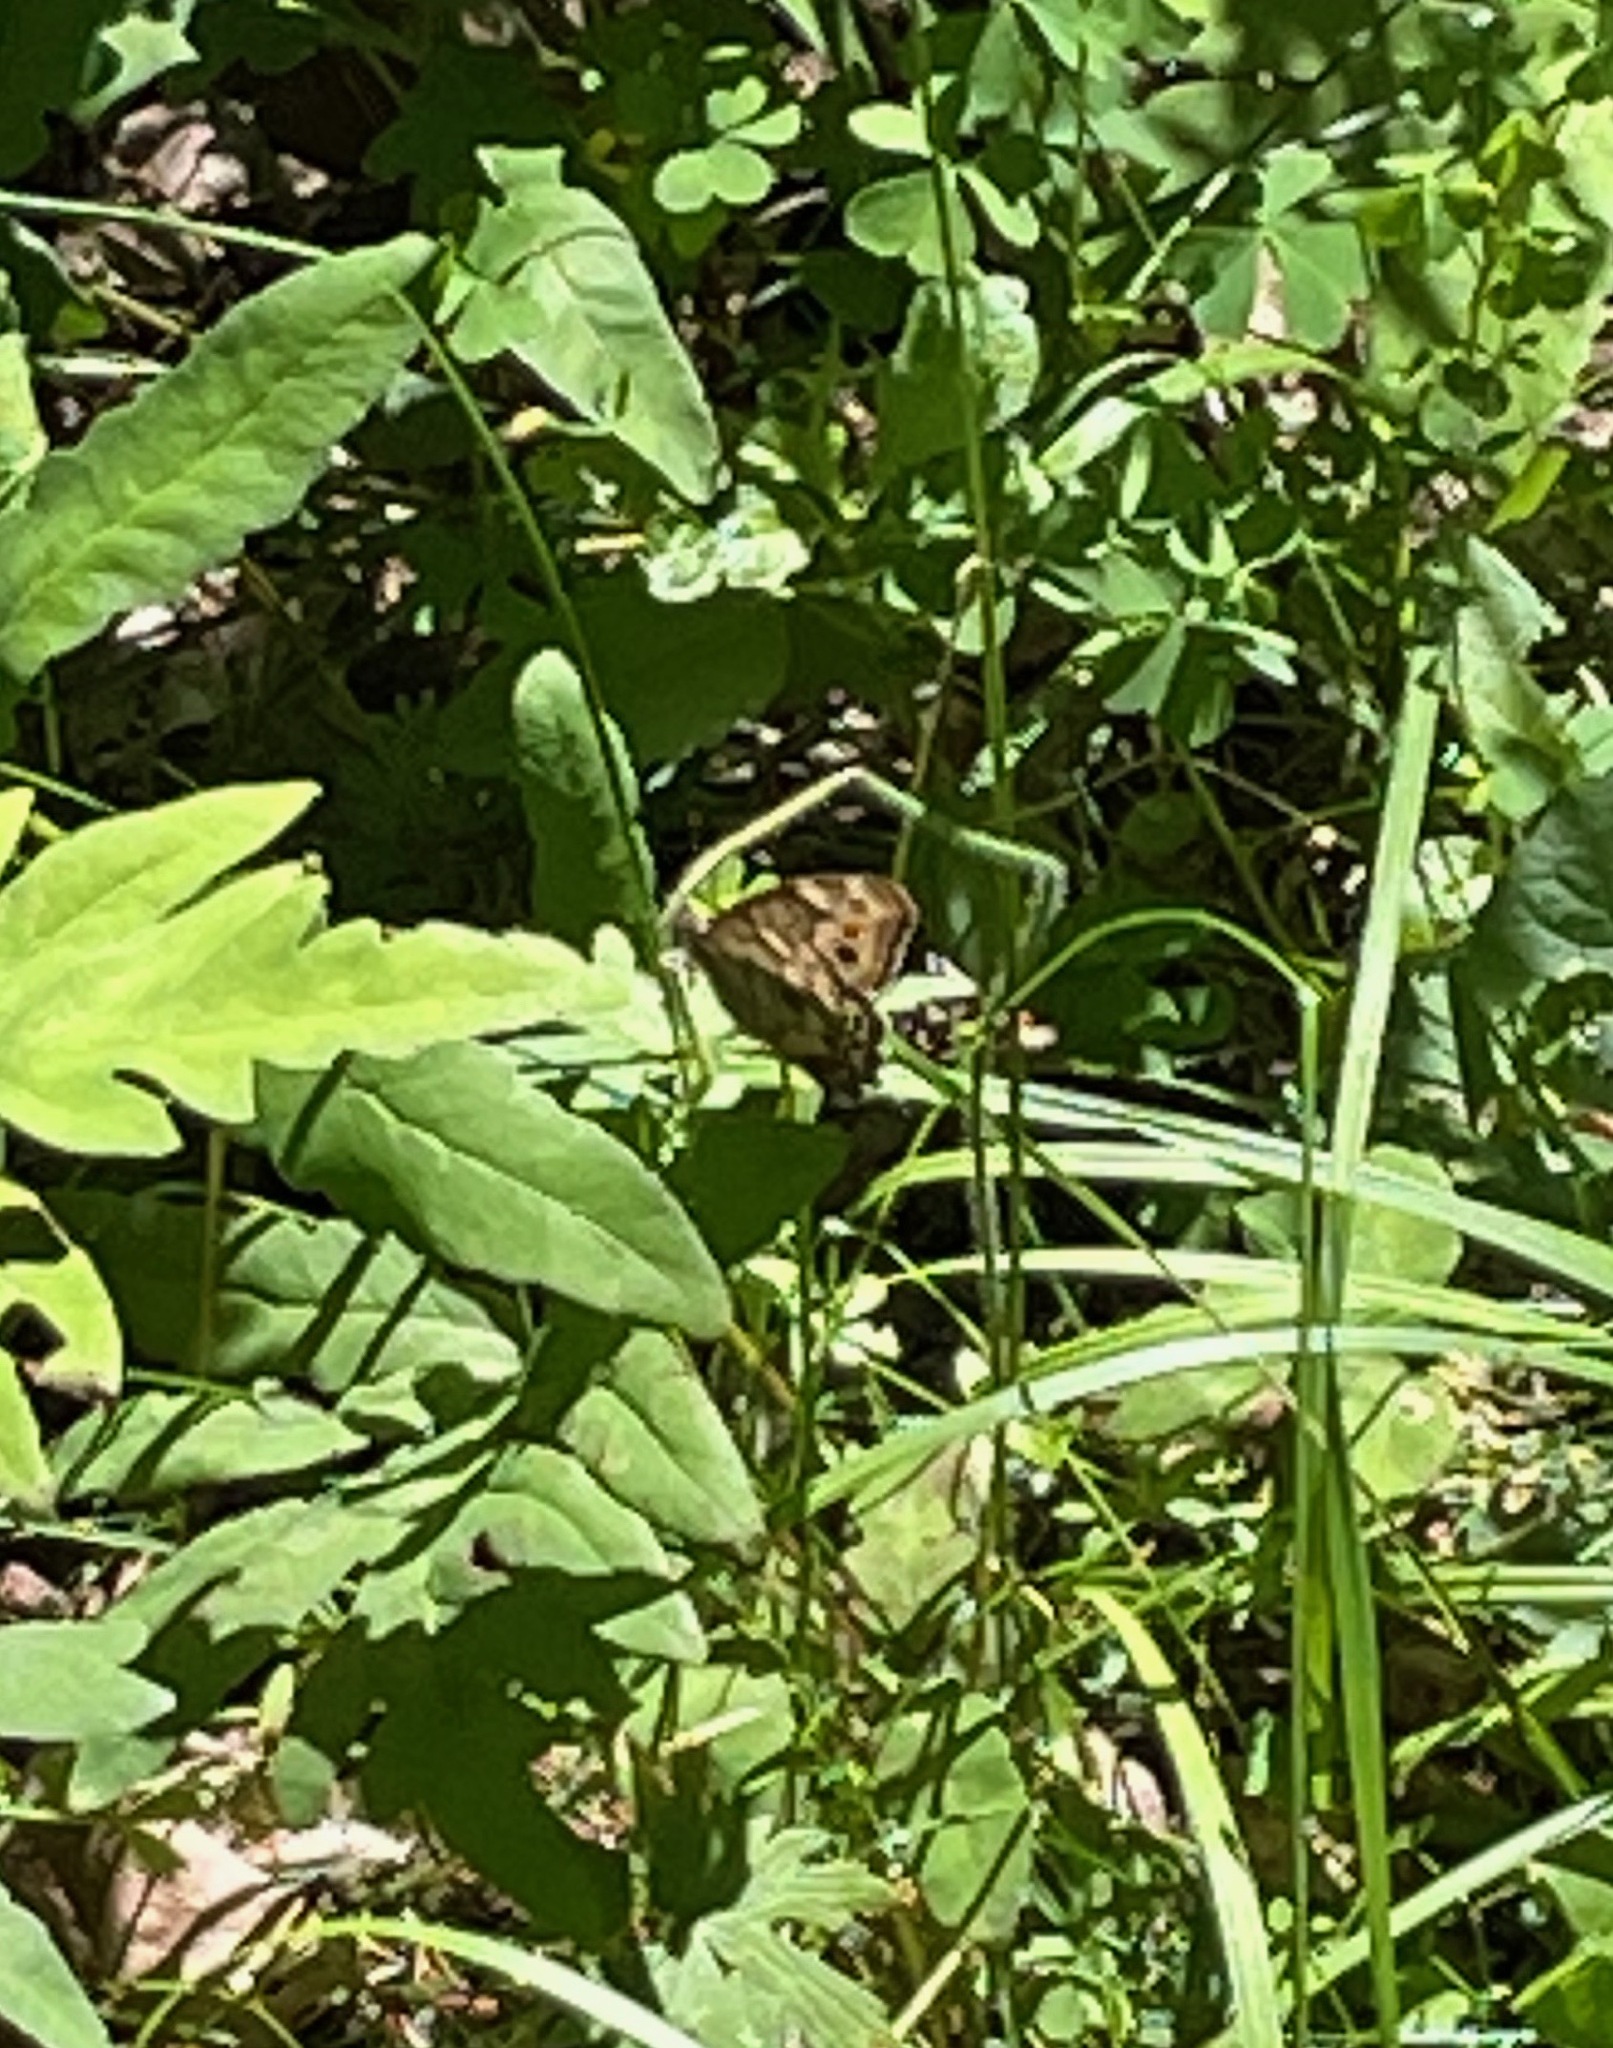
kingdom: Animalia
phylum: Arthropoda
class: Insecta
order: Lepidoptera
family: Nymphalidae
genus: Lethe
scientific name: Lethe anthedon
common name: Northern pearly-eye
